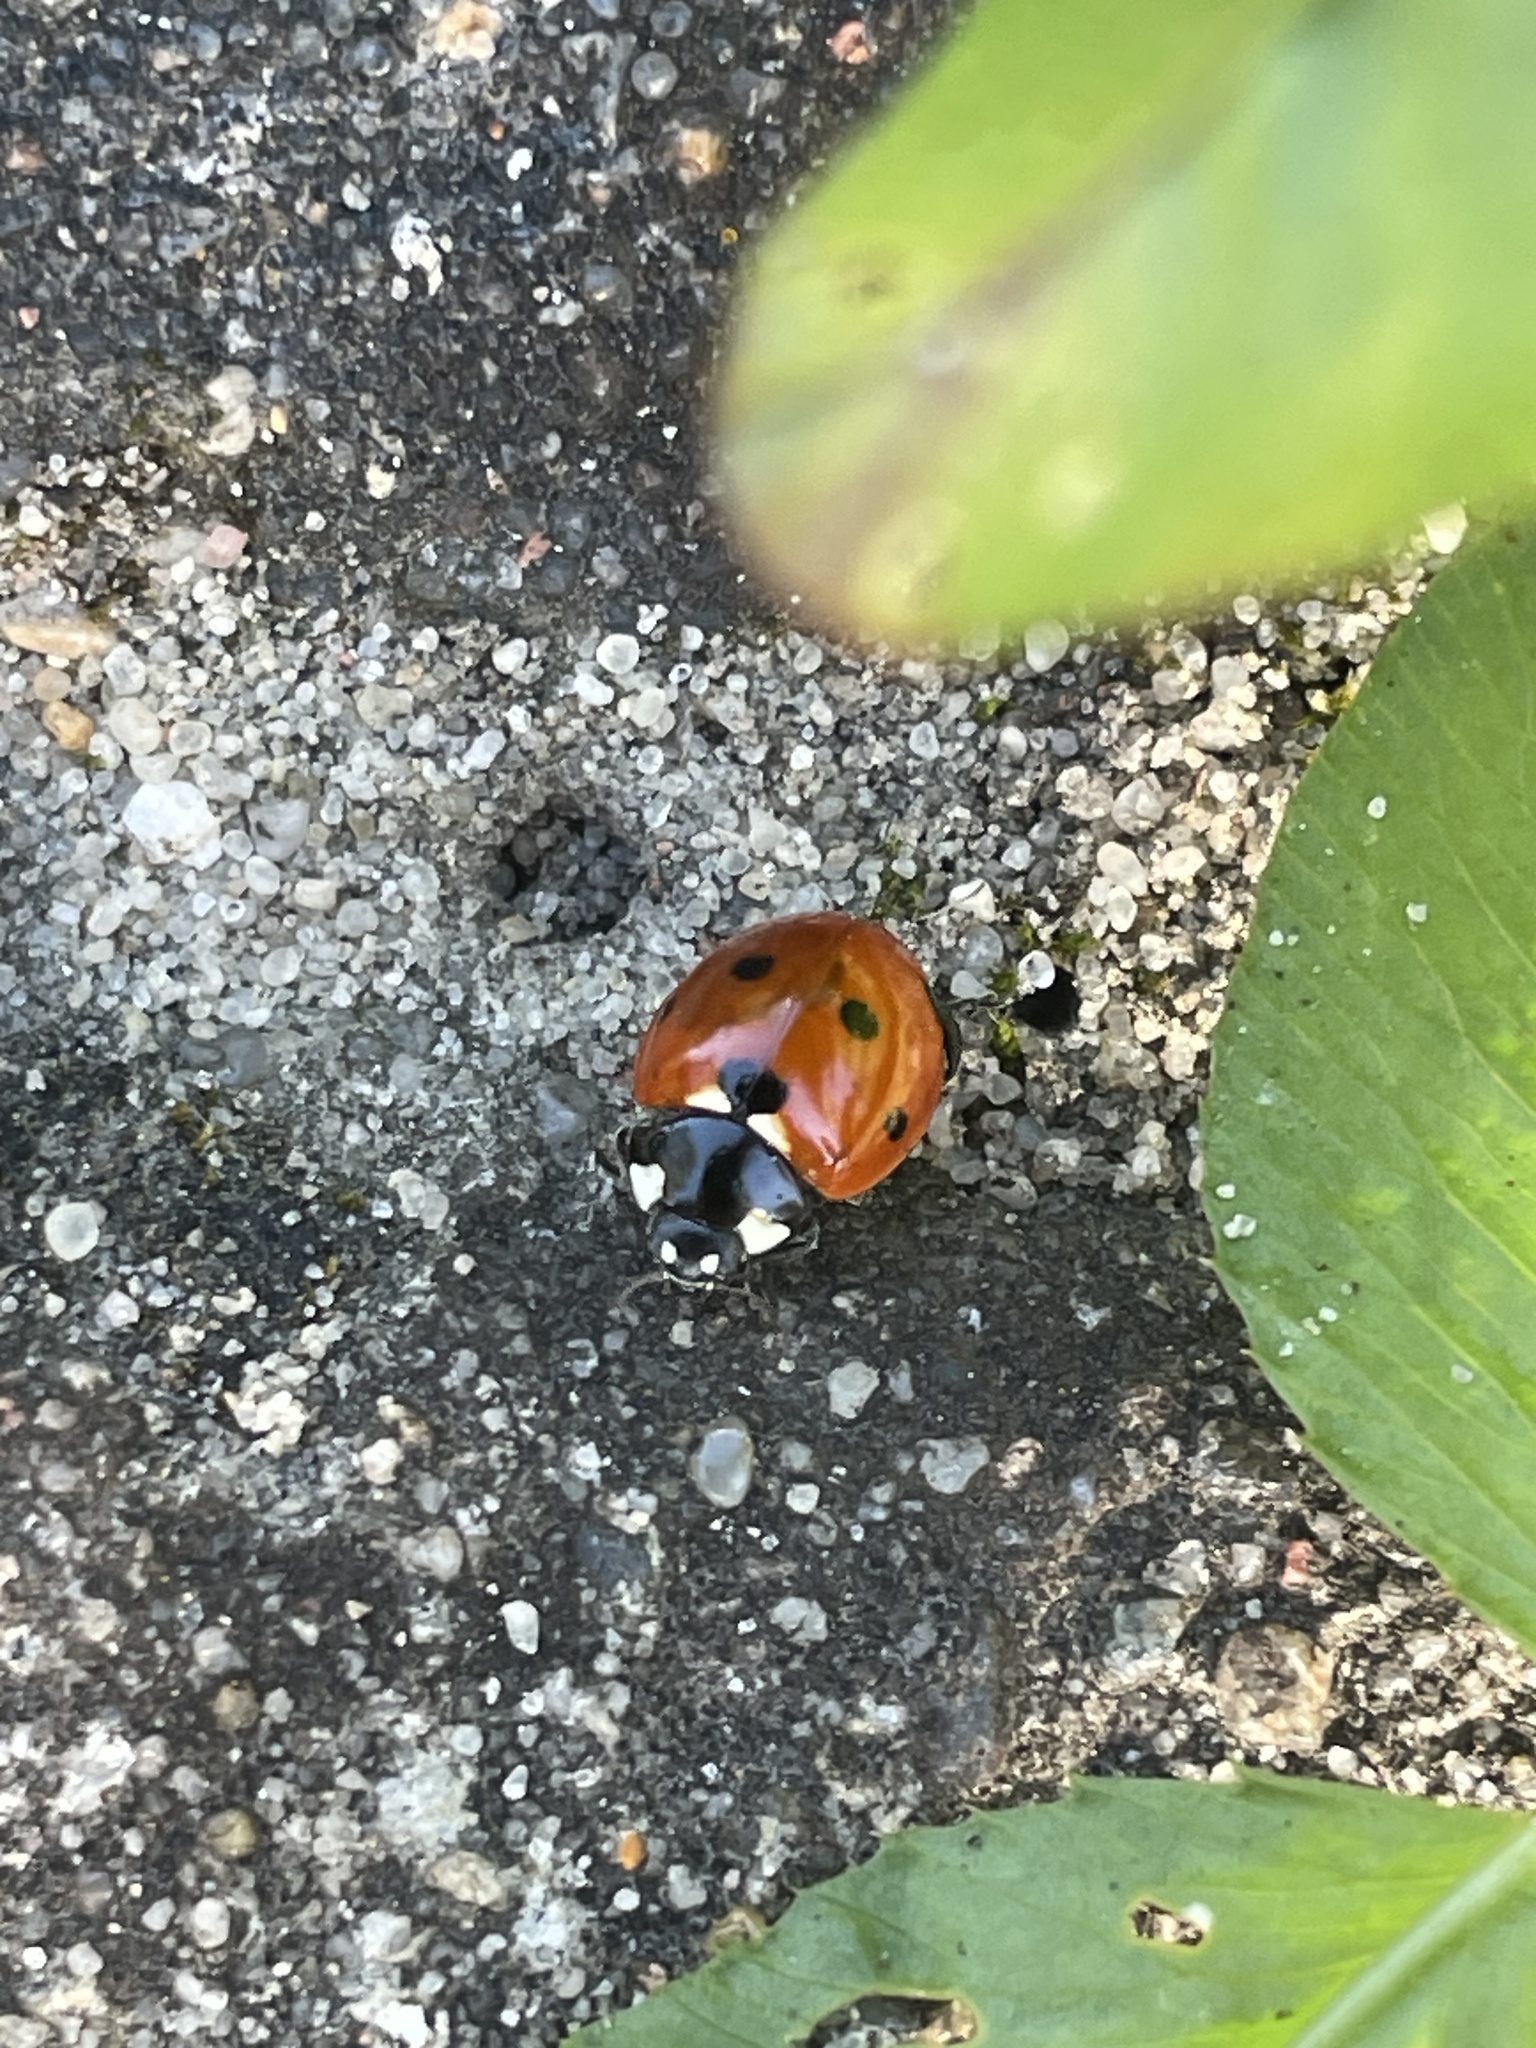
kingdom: Animalia
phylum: Arthropoda
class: Insecta
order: Coleoptera
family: Coccinellidae
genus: Coccinella
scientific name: Coccinella septempunctata
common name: Sevenspotted lady beetle
